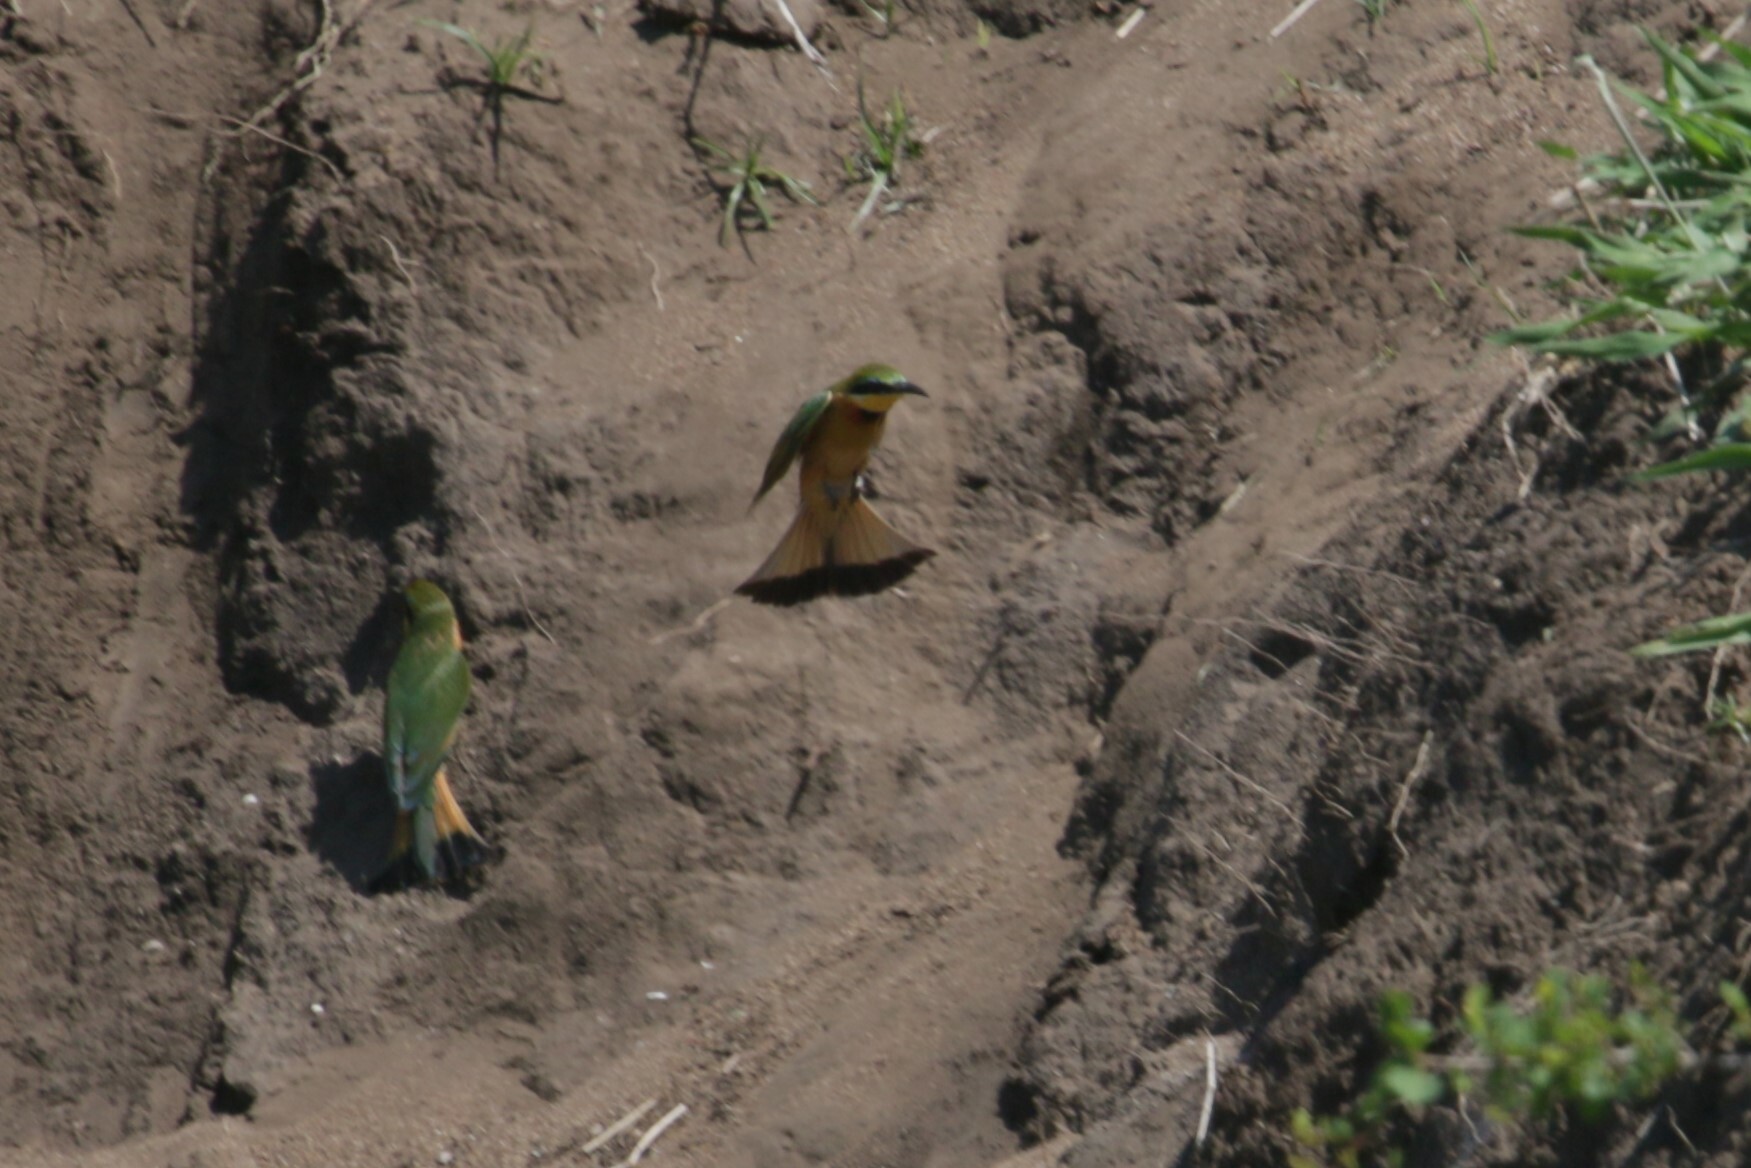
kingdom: Animalia
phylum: Chordata
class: Aves
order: Coraciiformes
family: Meropidae
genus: Merops
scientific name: Merops pusillus
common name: Little bee-eater
